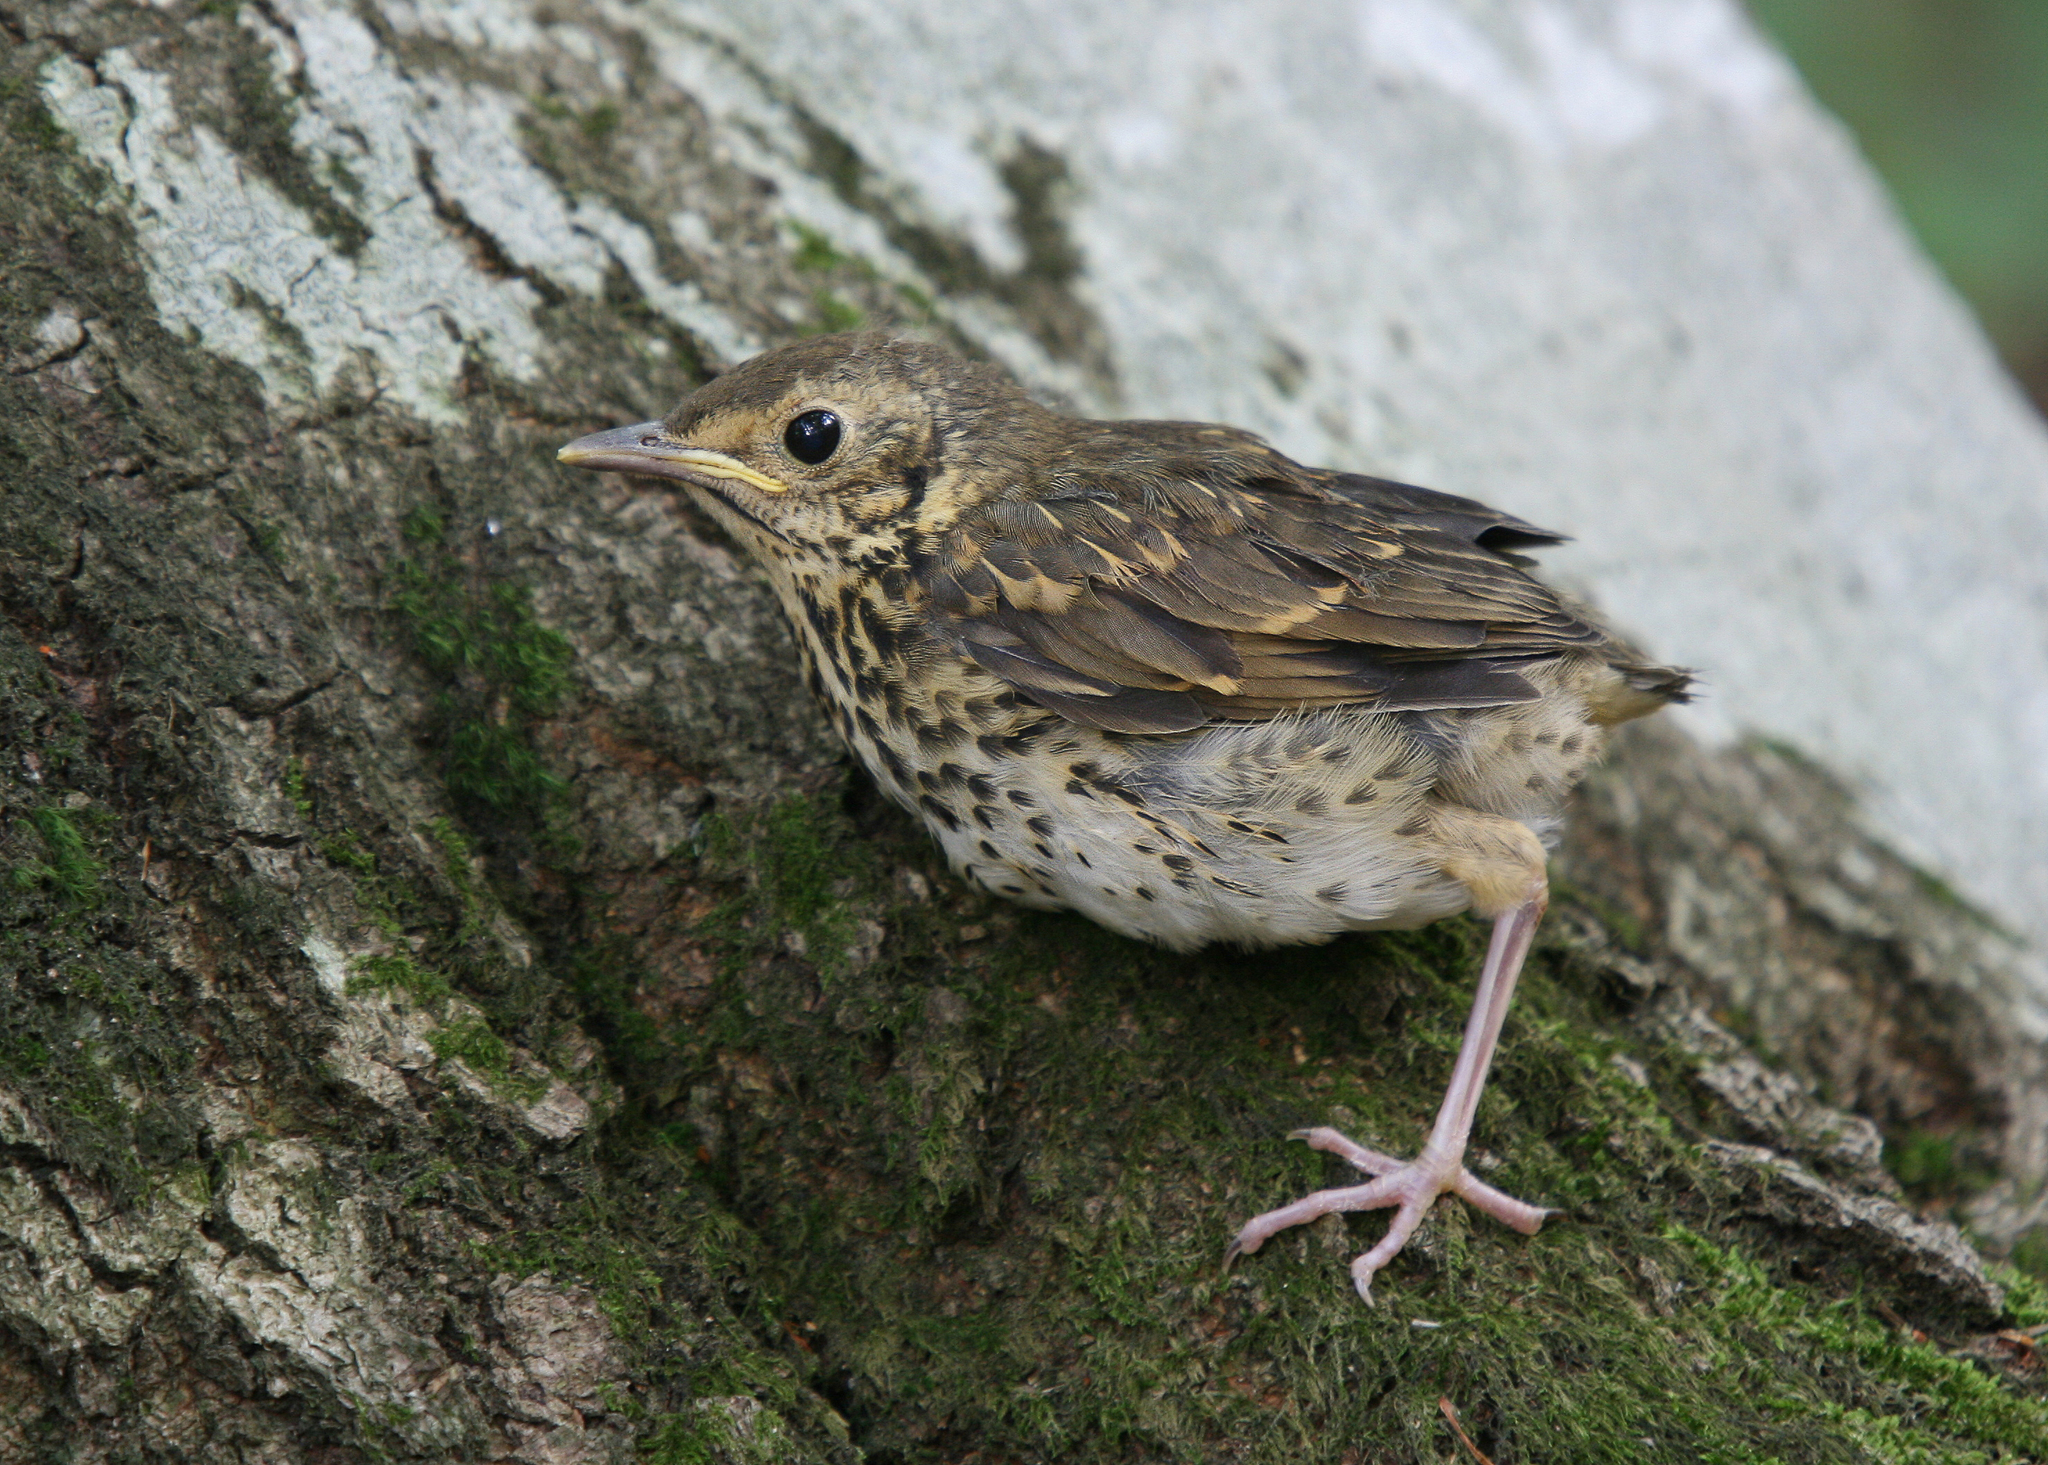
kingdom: Animalia
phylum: Chordata
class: Aves
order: Passeriformes
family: Turdidae
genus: Turdus
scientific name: Turdus philomelos
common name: Song thrush
